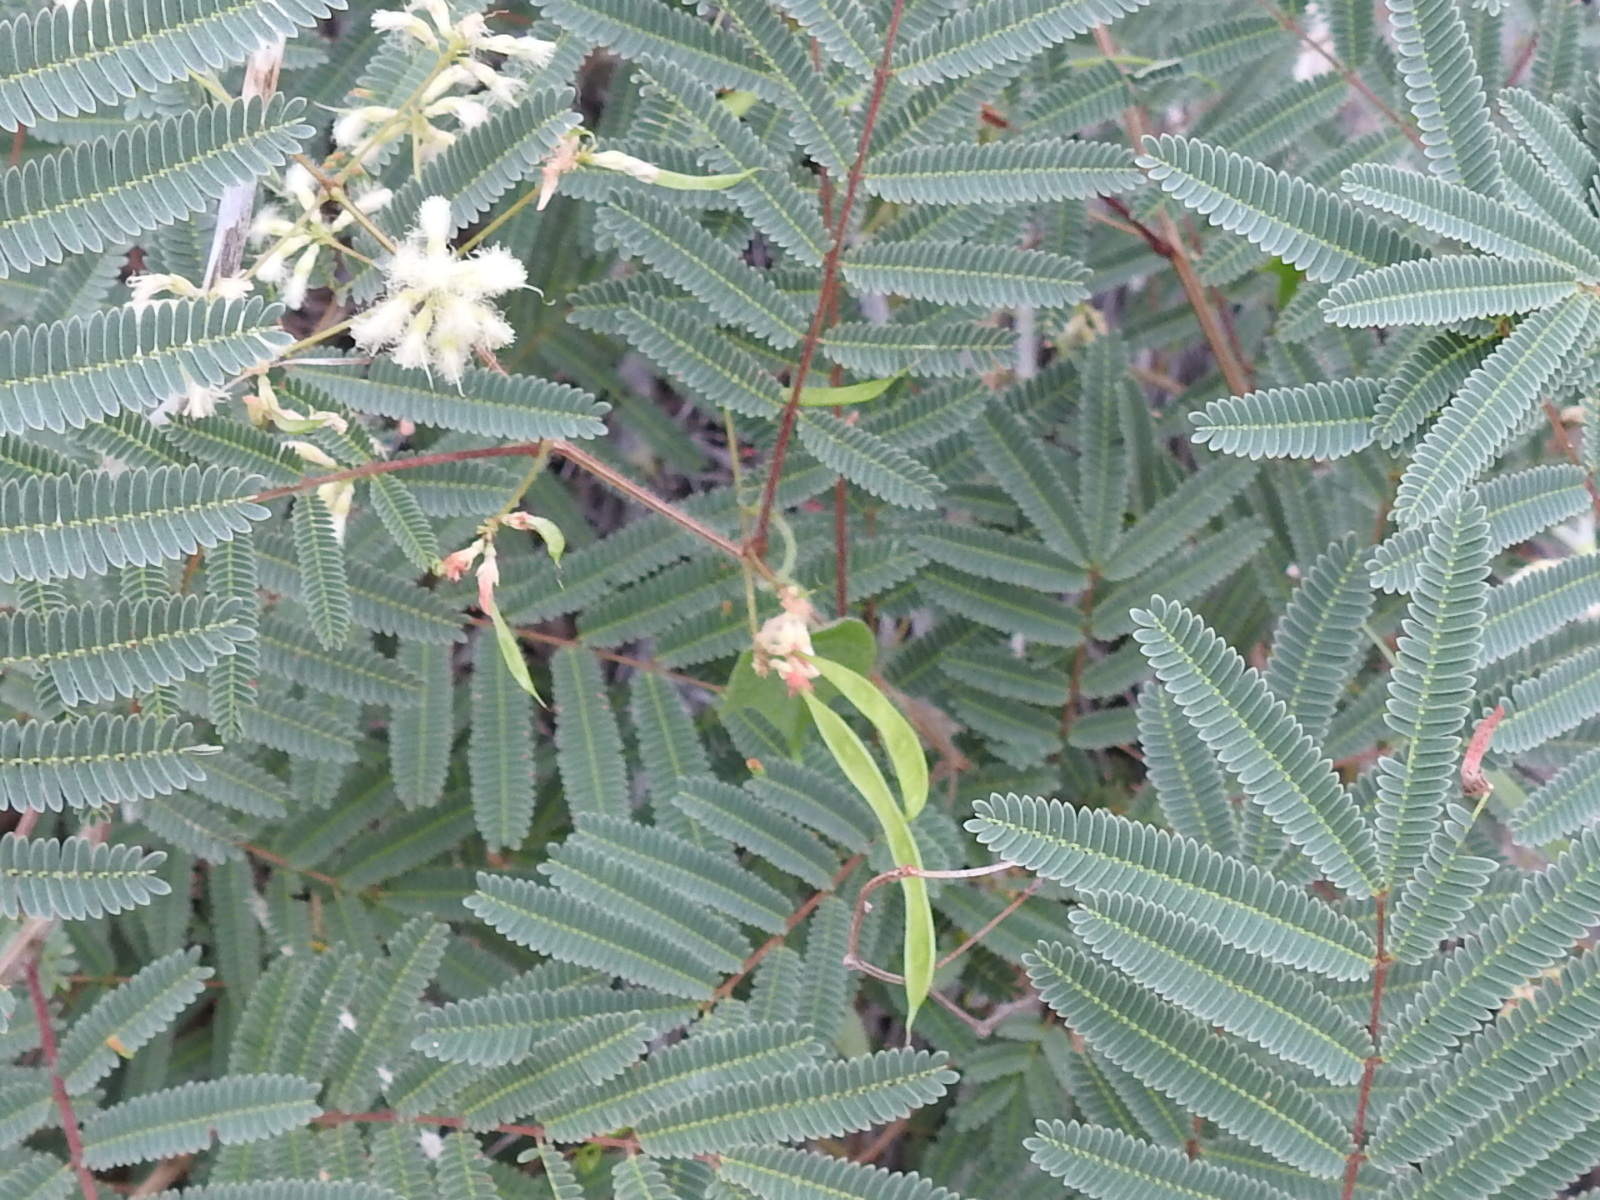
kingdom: Plantae
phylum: Tracheophyta
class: Magnoliopsida
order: Fabales
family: Fabaceae
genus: Acaciella
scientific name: Acaciella angustissima
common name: Prairie acacia
